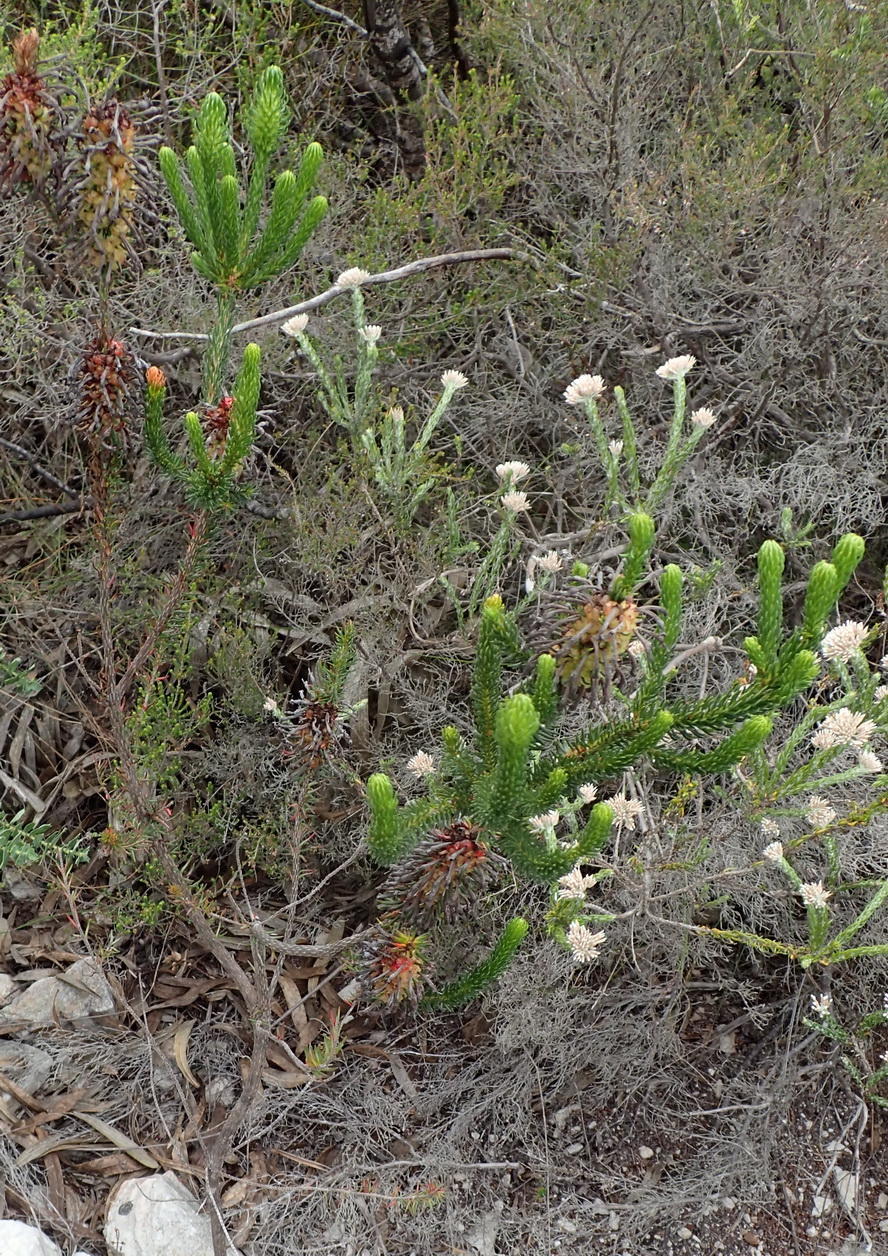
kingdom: Plantae
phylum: Tracheophyta
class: Magnoliopsida
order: Ericales
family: Ericaceae
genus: Erica
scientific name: Erica sessiliflora
